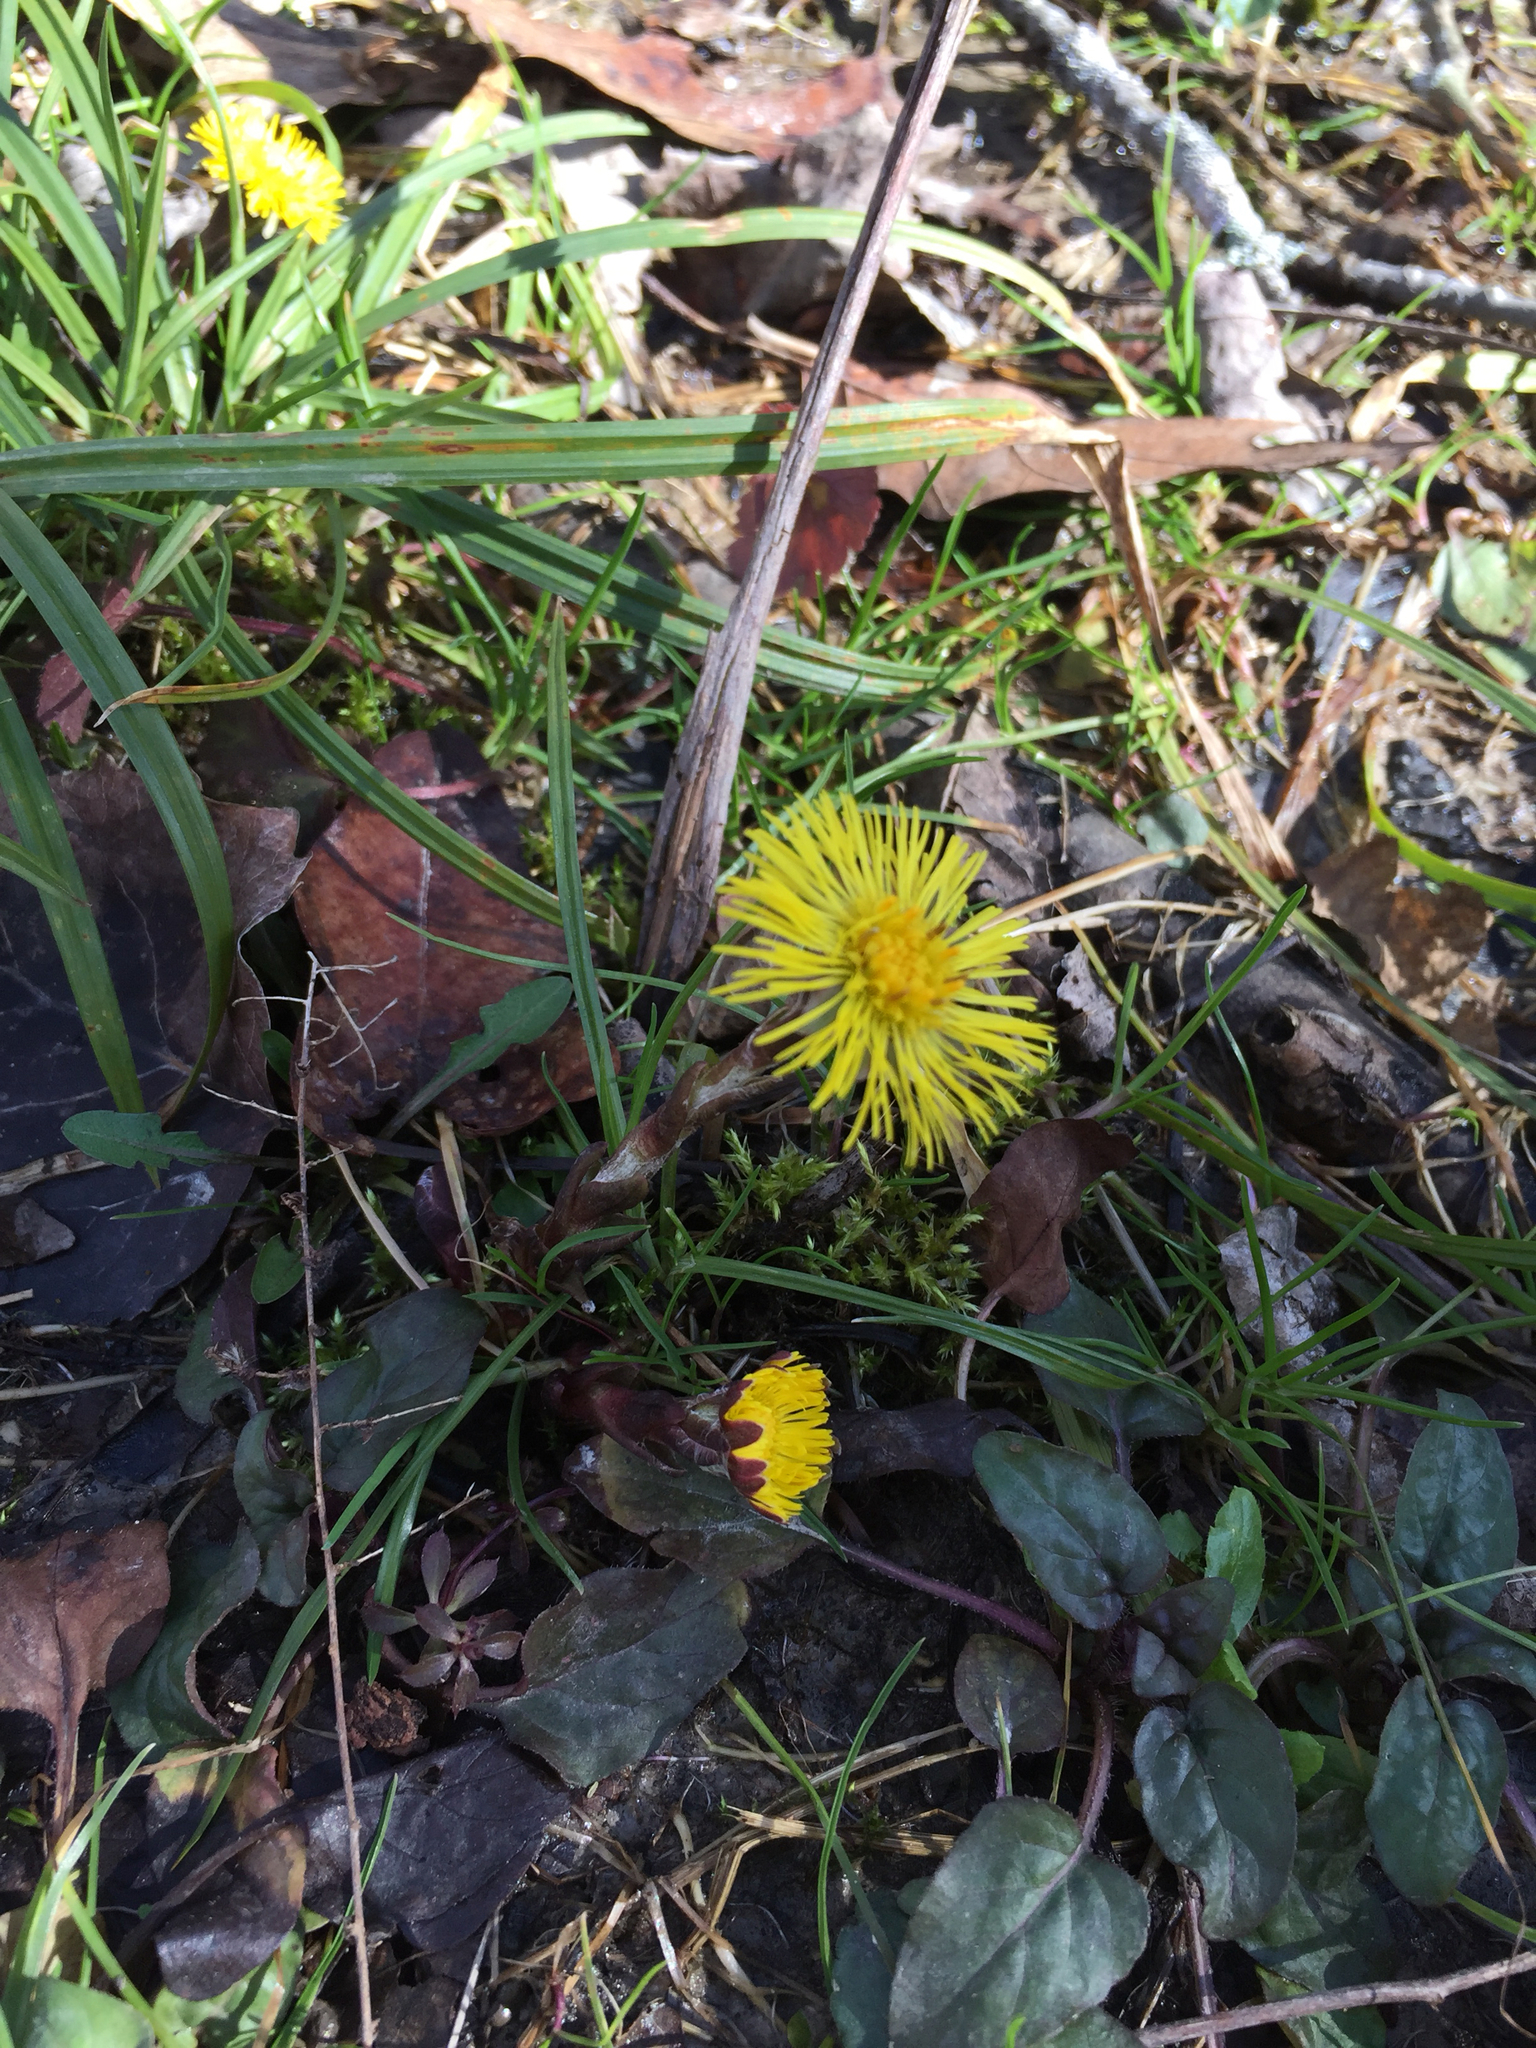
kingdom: Plantae
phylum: Tracheophyta
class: Magnoliopsida
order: Asterales
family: Asteraceae
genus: Tussilago
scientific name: Tussilago farfara
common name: Coltsfoot
